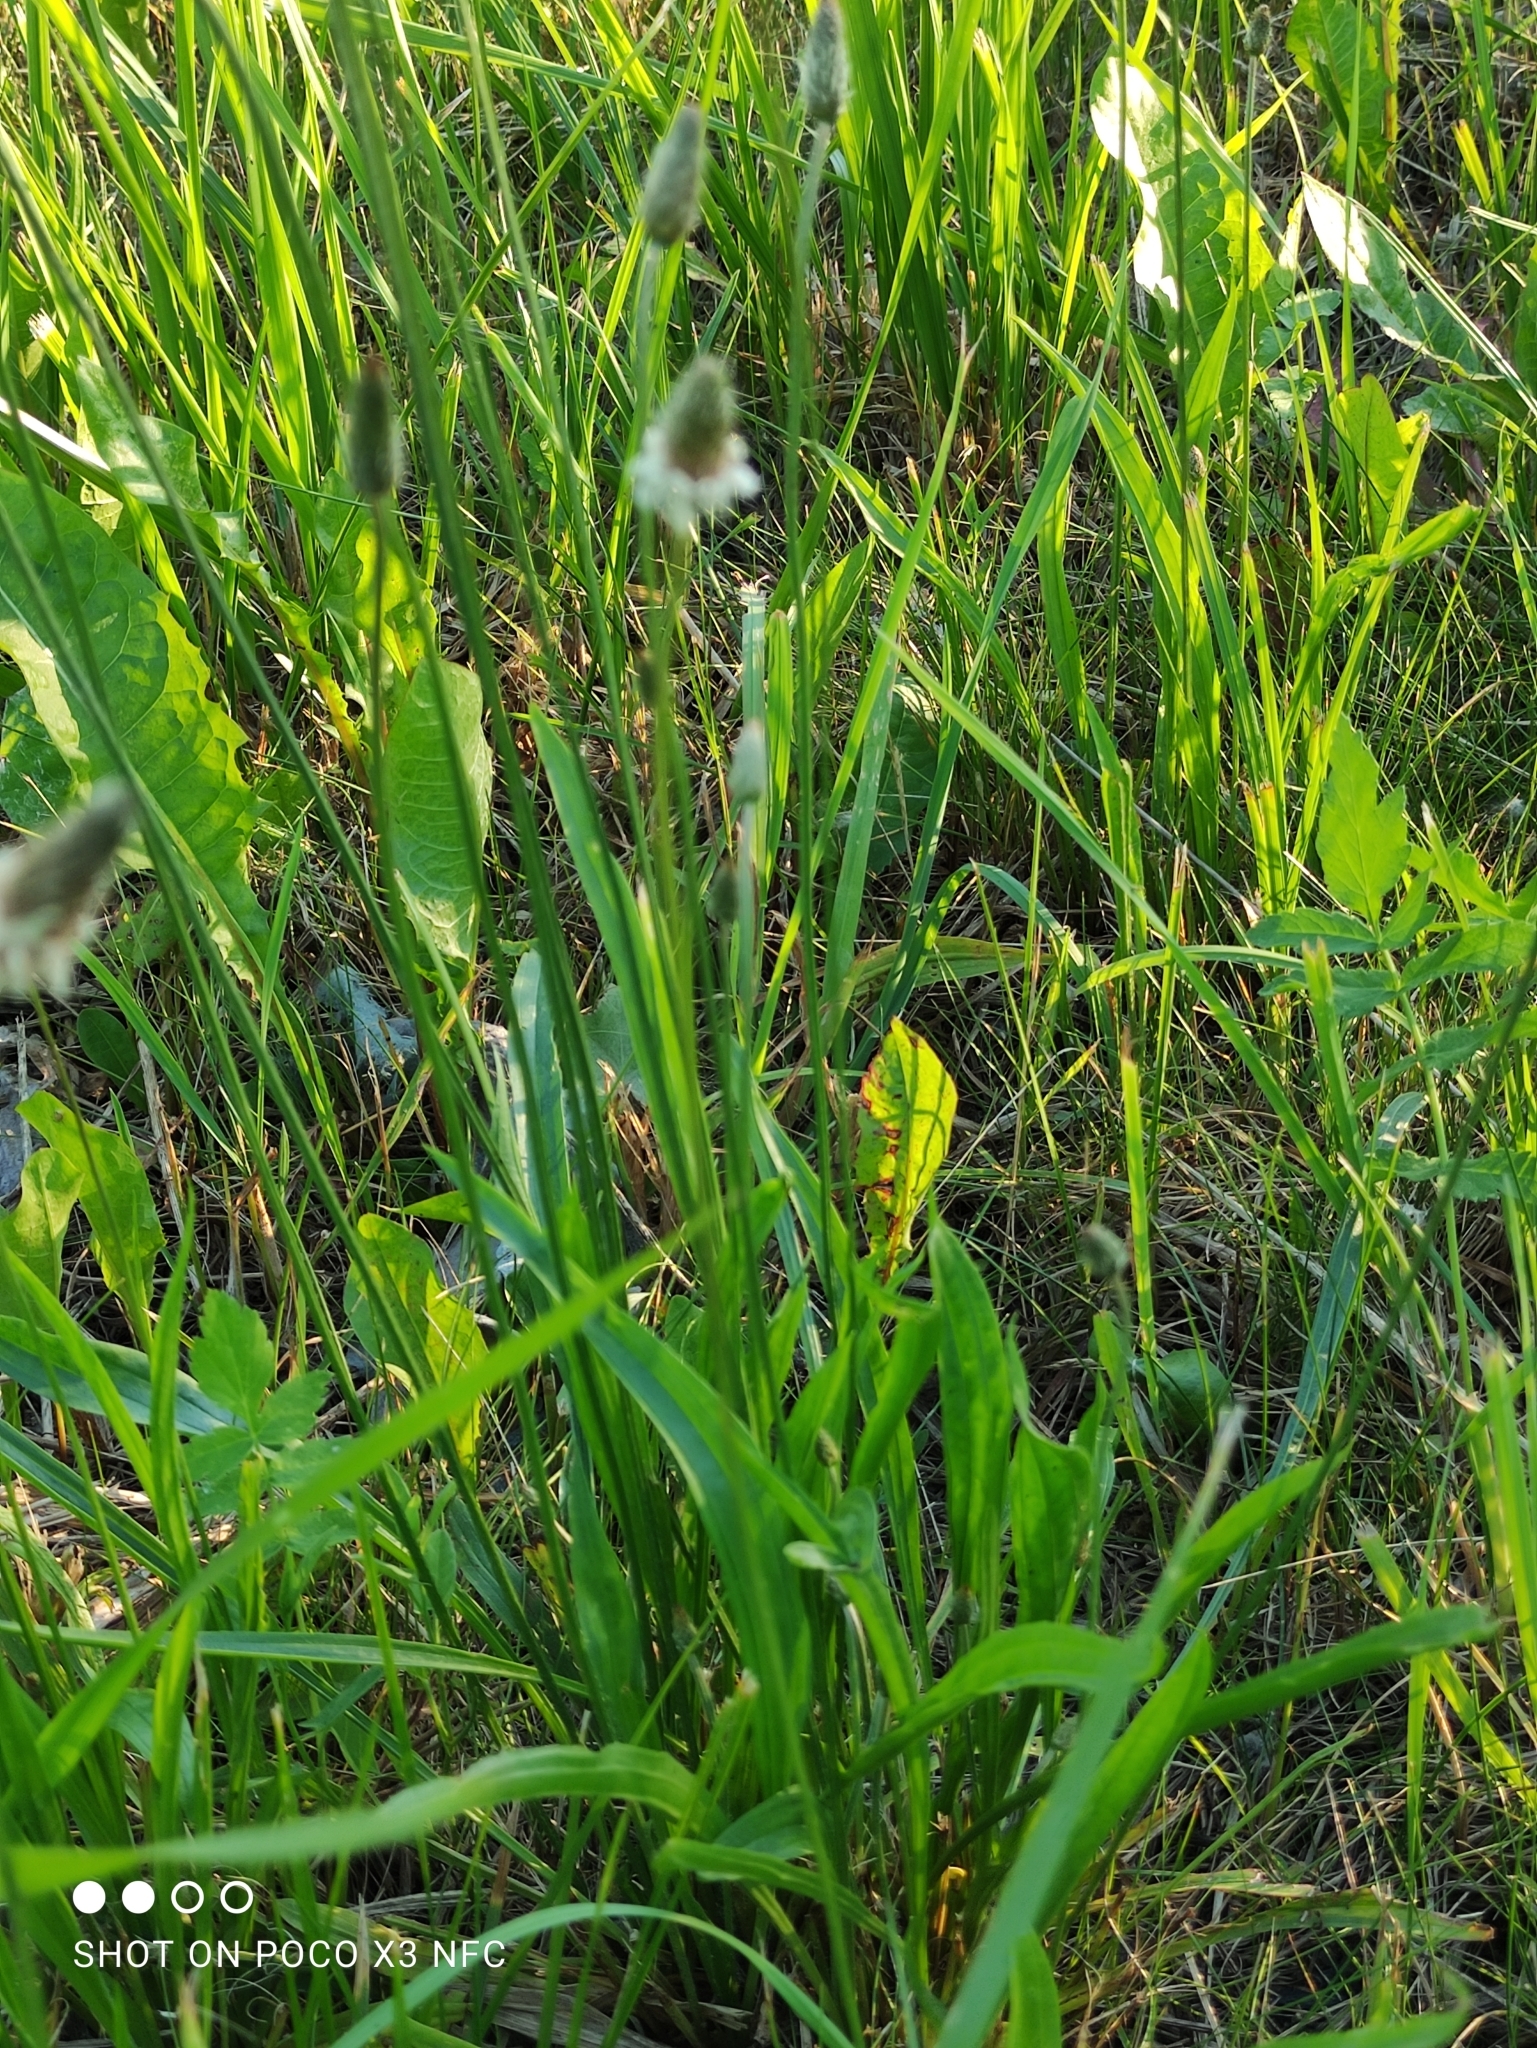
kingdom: Plantae
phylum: Tracheophyta
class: Magnoliopsida
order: Lamiales
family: Plantaginaceae
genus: Plantago
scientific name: Plantago lanceolata
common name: Ribwort plantain
